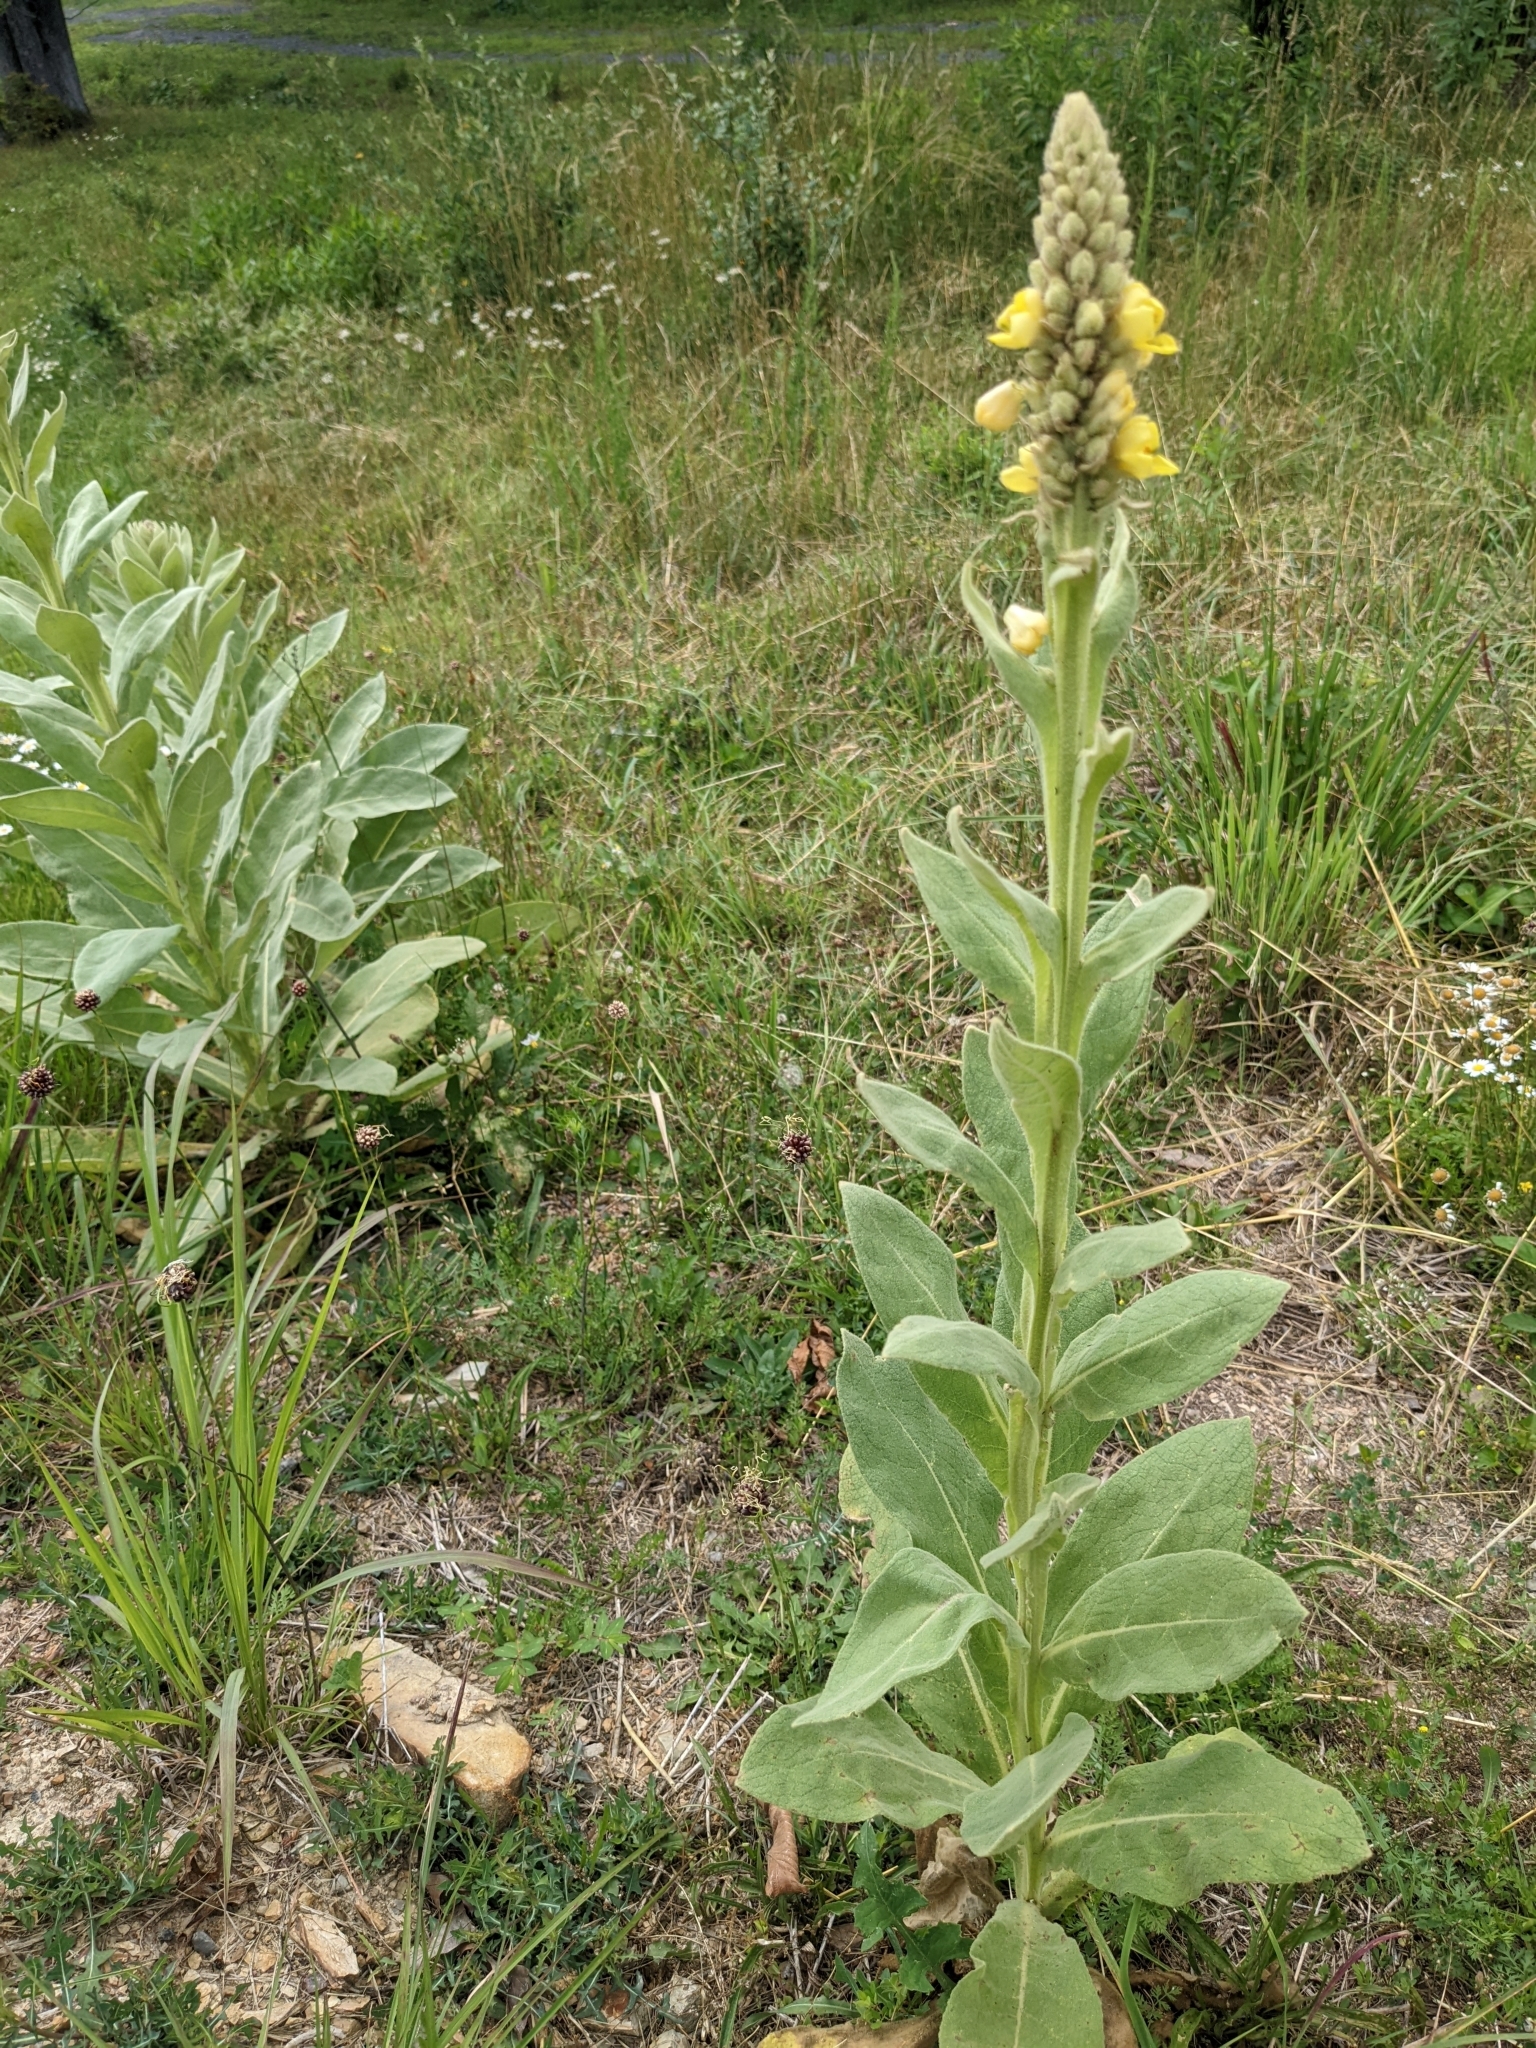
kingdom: Plantae
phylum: Tracheophyta
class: Magnoliopsida
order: Lamiales
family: Scrophulariaceae
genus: Verbascum
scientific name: Verbascum thapsus
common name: Common mullein
